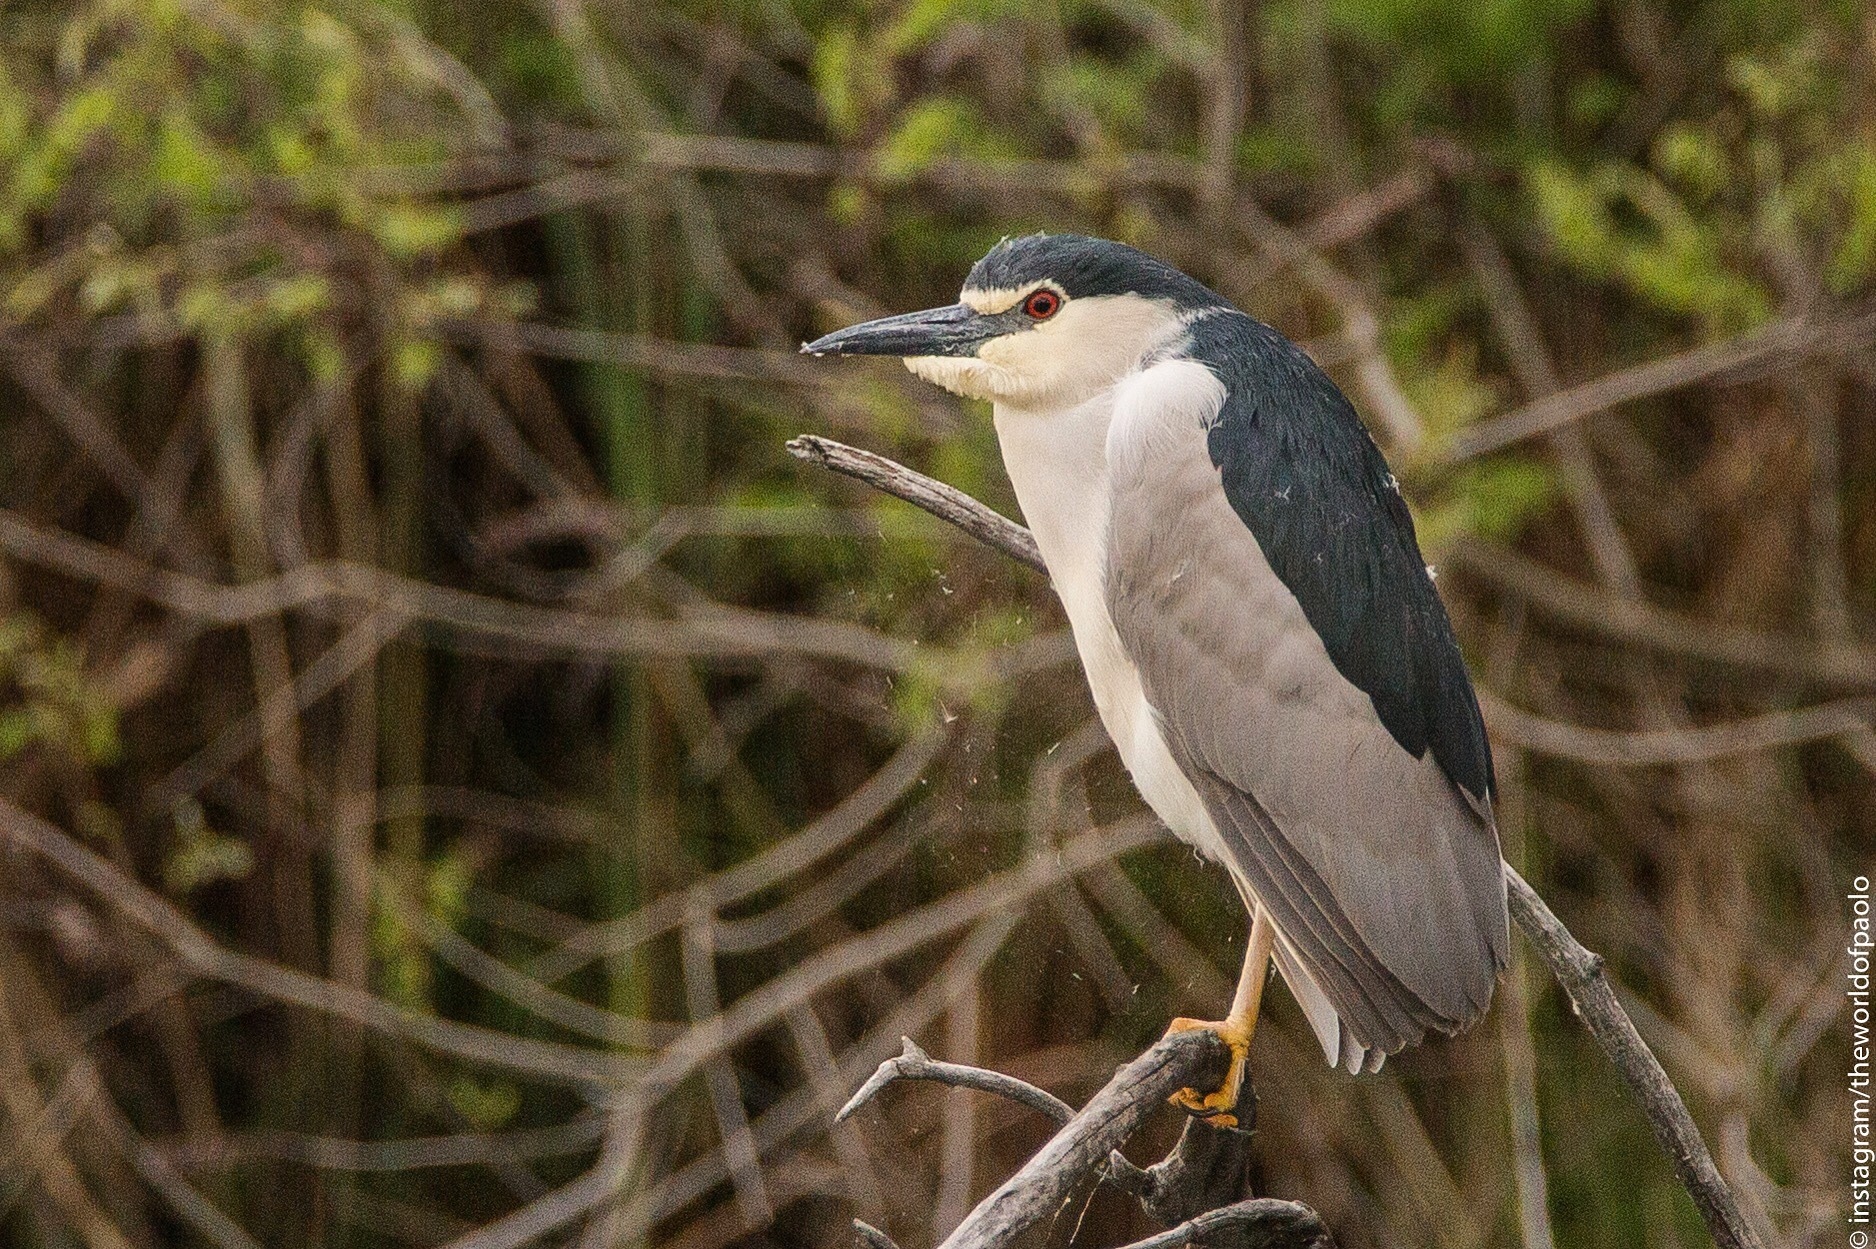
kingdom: Animalia
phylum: Chordata
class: Aves
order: Pelecaniformes
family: Ardeidae
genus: Nycticorax
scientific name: Nycticorax nycticorax
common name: Black-crowned night heron
